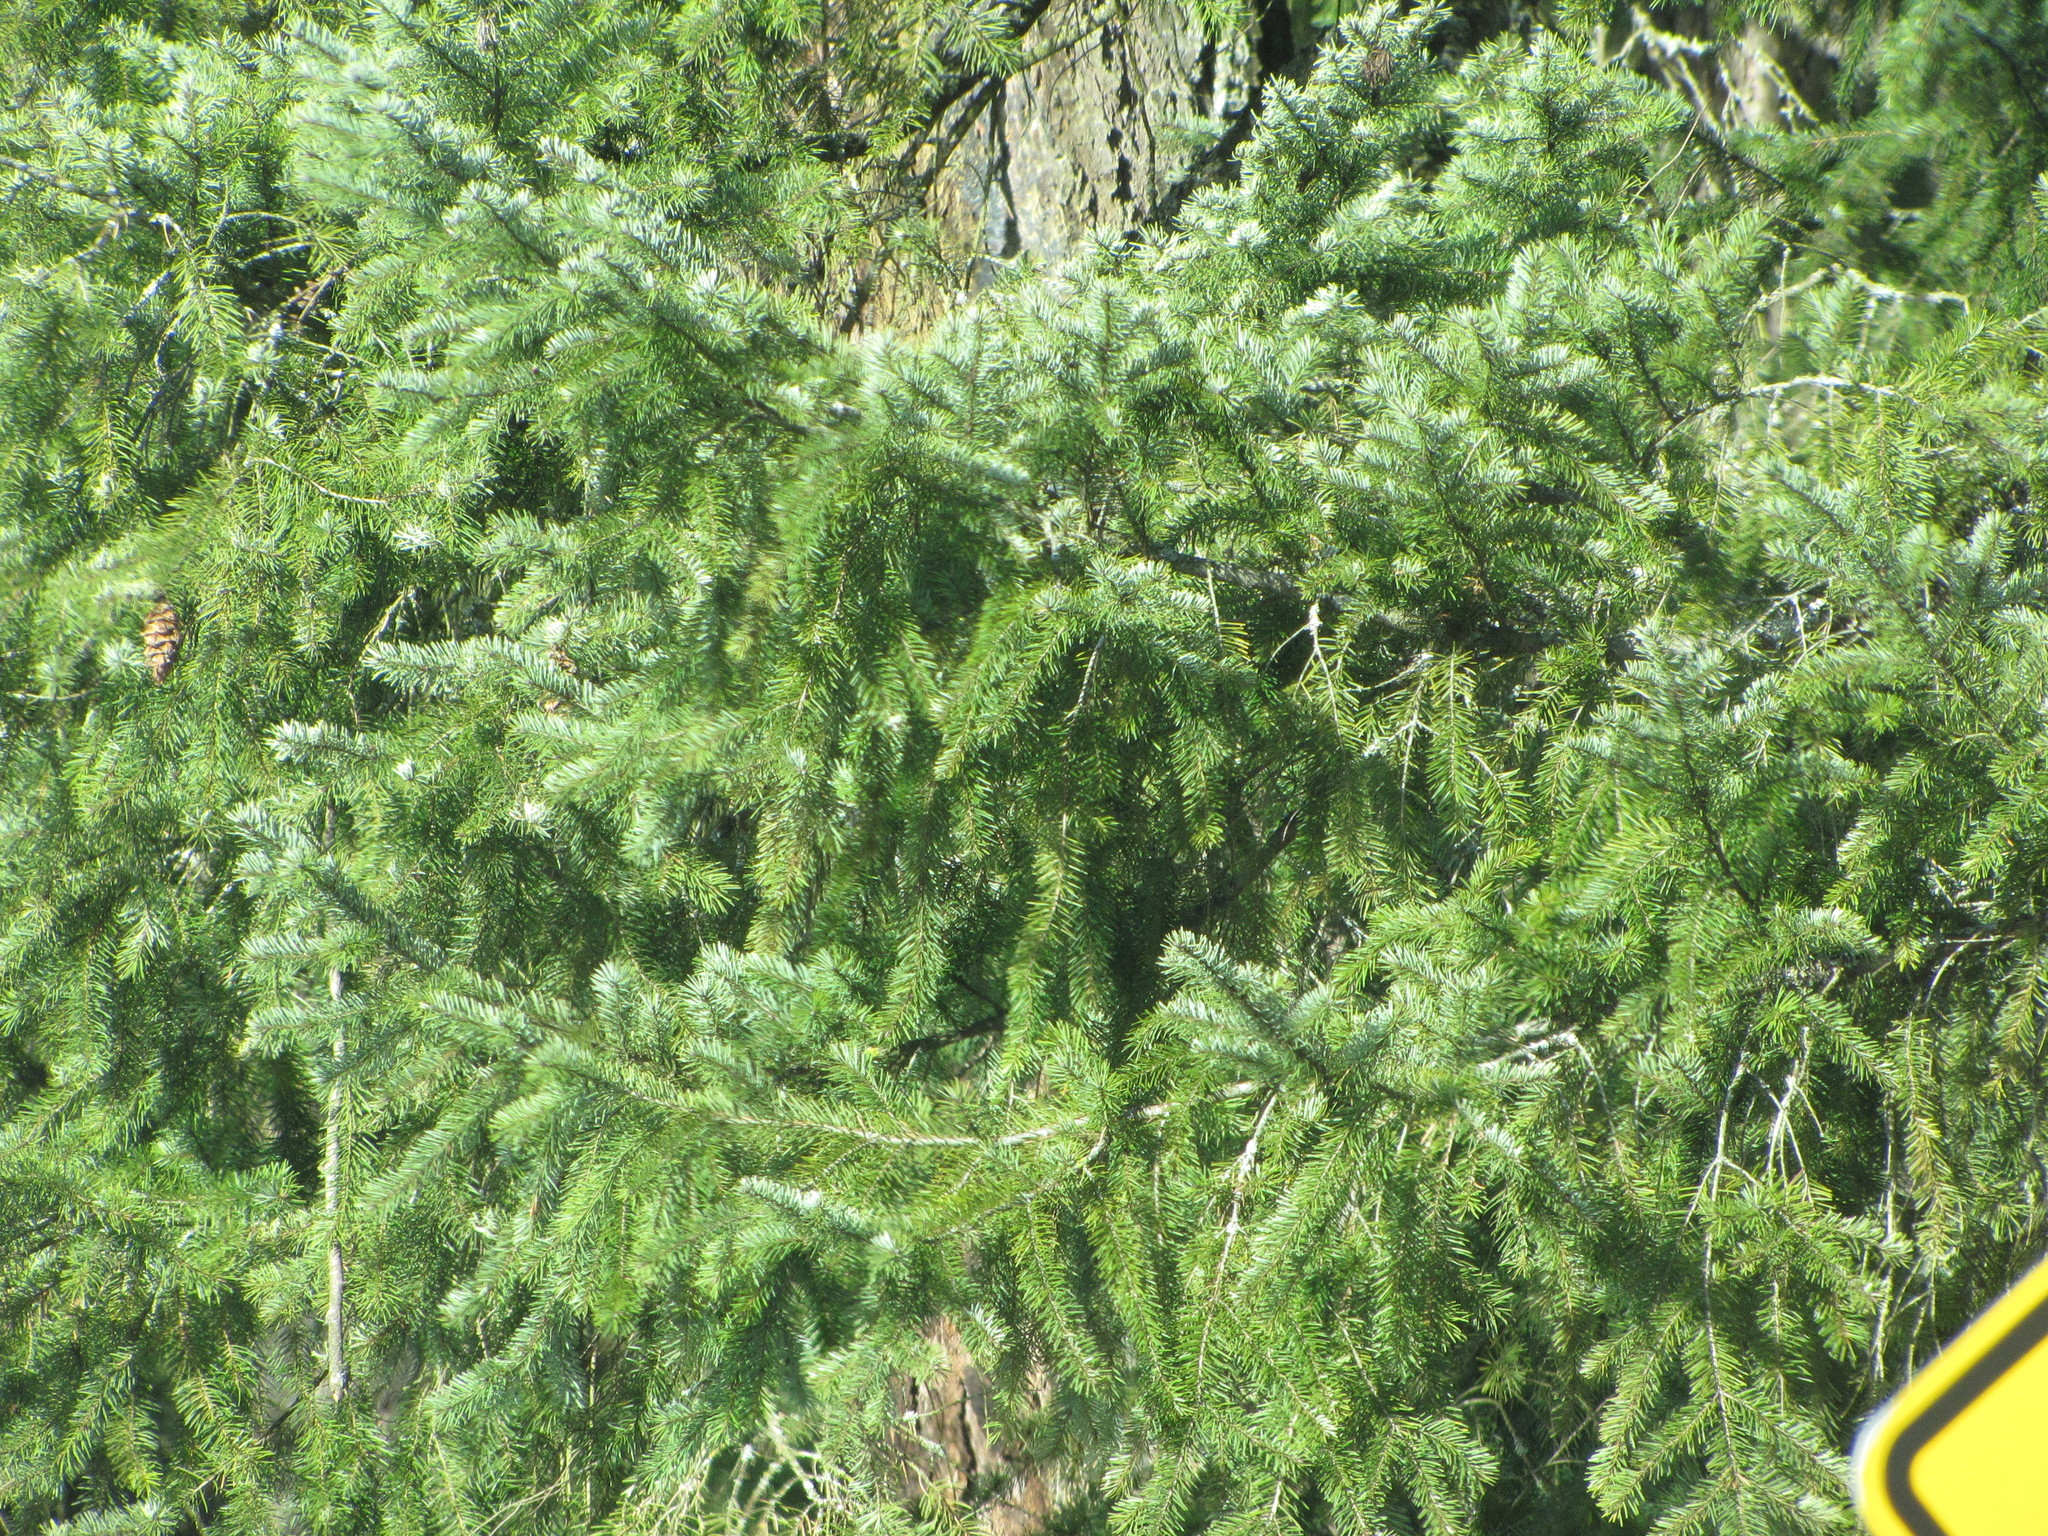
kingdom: Plantae
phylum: Tracheophyta
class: Pinopsida
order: Pinales
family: Pinaceae
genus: Pseudotsuga
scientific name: Pseudotsuga menziesii
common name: Douglas fir
